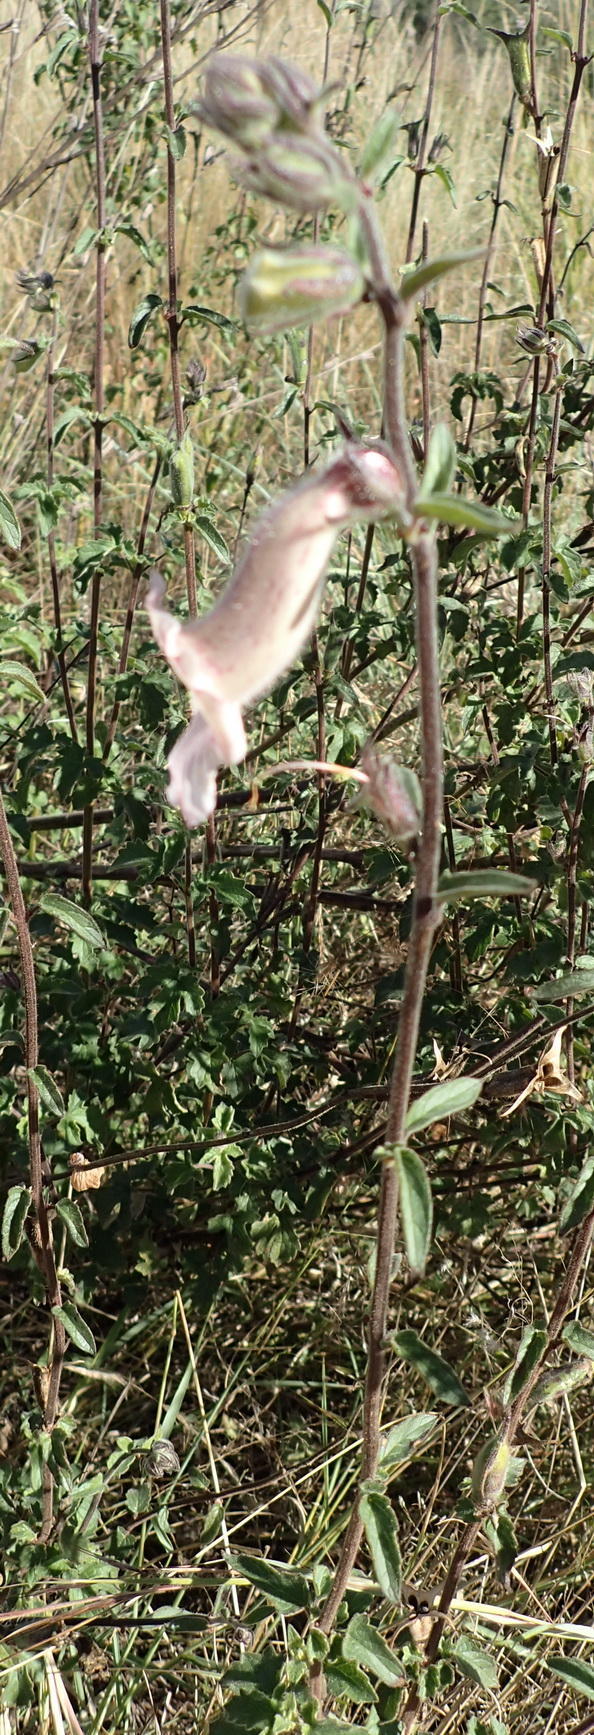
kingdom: Plantae
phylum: Tracheophyta
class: Magnoliopsida
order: Lamiales
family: Pedaliaceae
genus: Sesamum
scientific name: Sesamum trilobum
